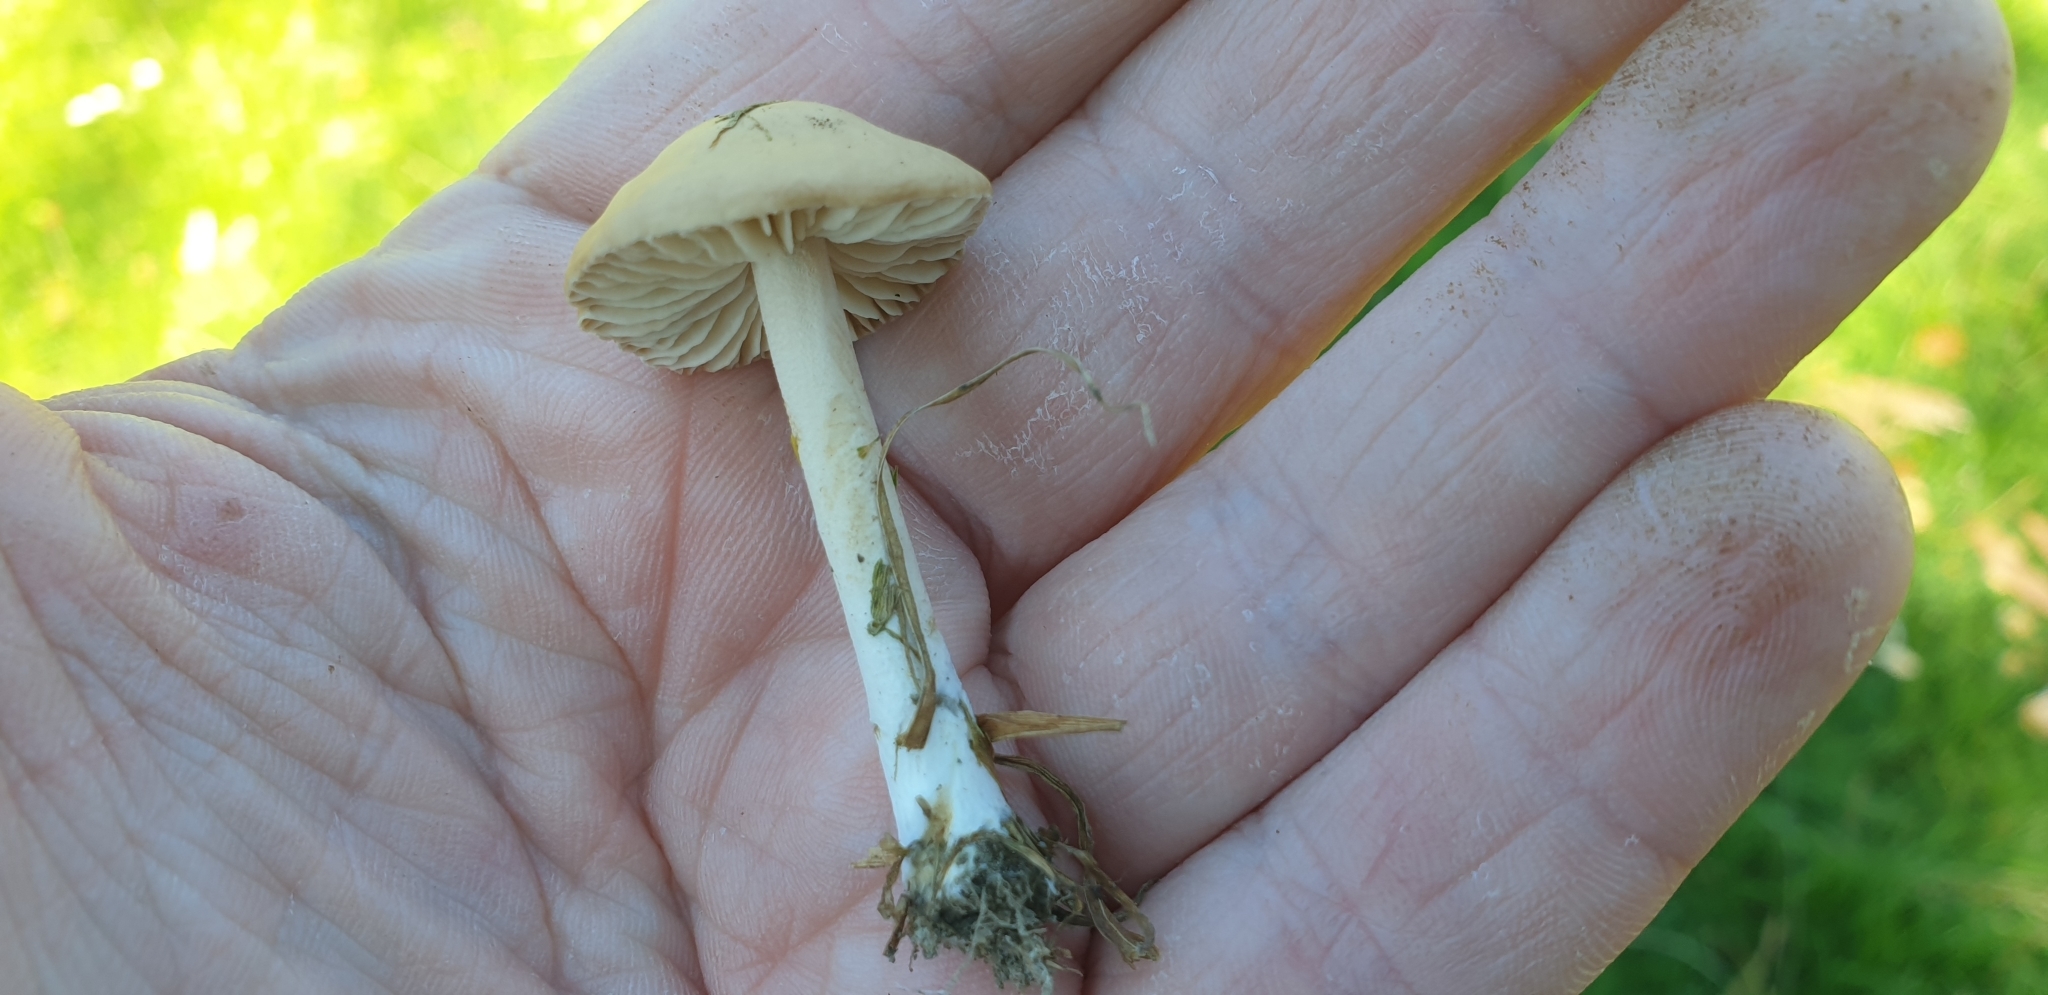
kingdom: Fungi
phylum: Basidiomycota
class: Agaricomycetes
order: Agaricales
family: Marasmiaceae
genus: Marasmius
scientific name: Marasmius oreades
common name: Fairy ring champignon
